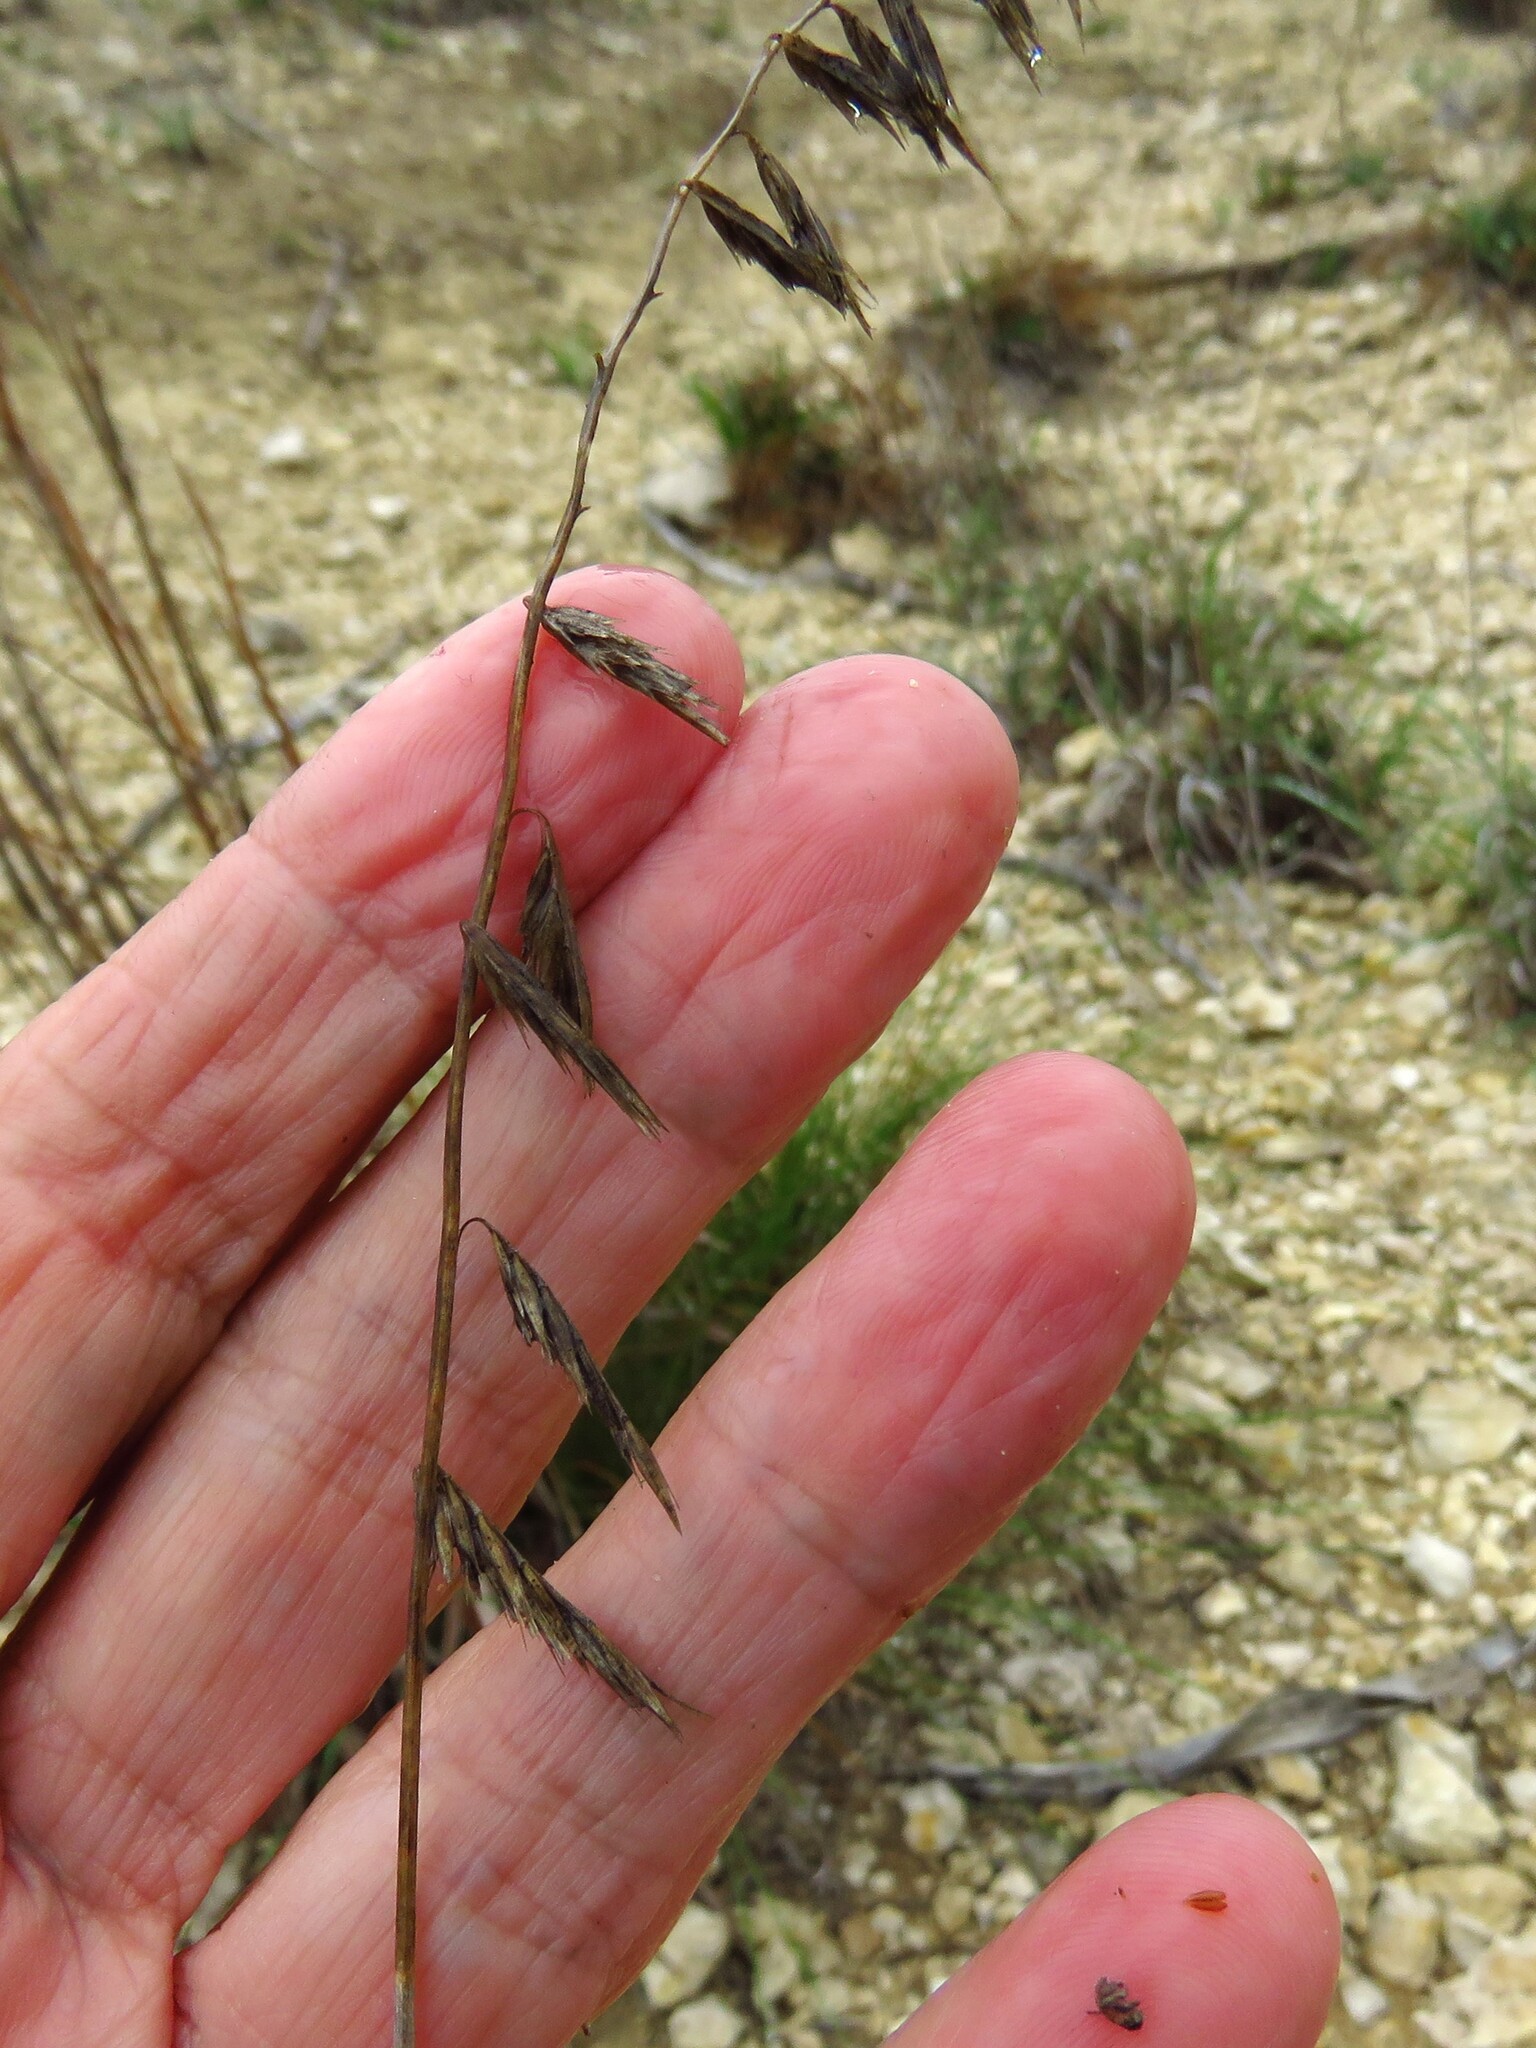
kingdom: Plantae
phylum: Tracheophyta
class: Liliopsida
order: Poales
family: Poaceae
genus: Bouteloua
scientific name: Bouteloua curtipendula
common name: Side-oats grama
